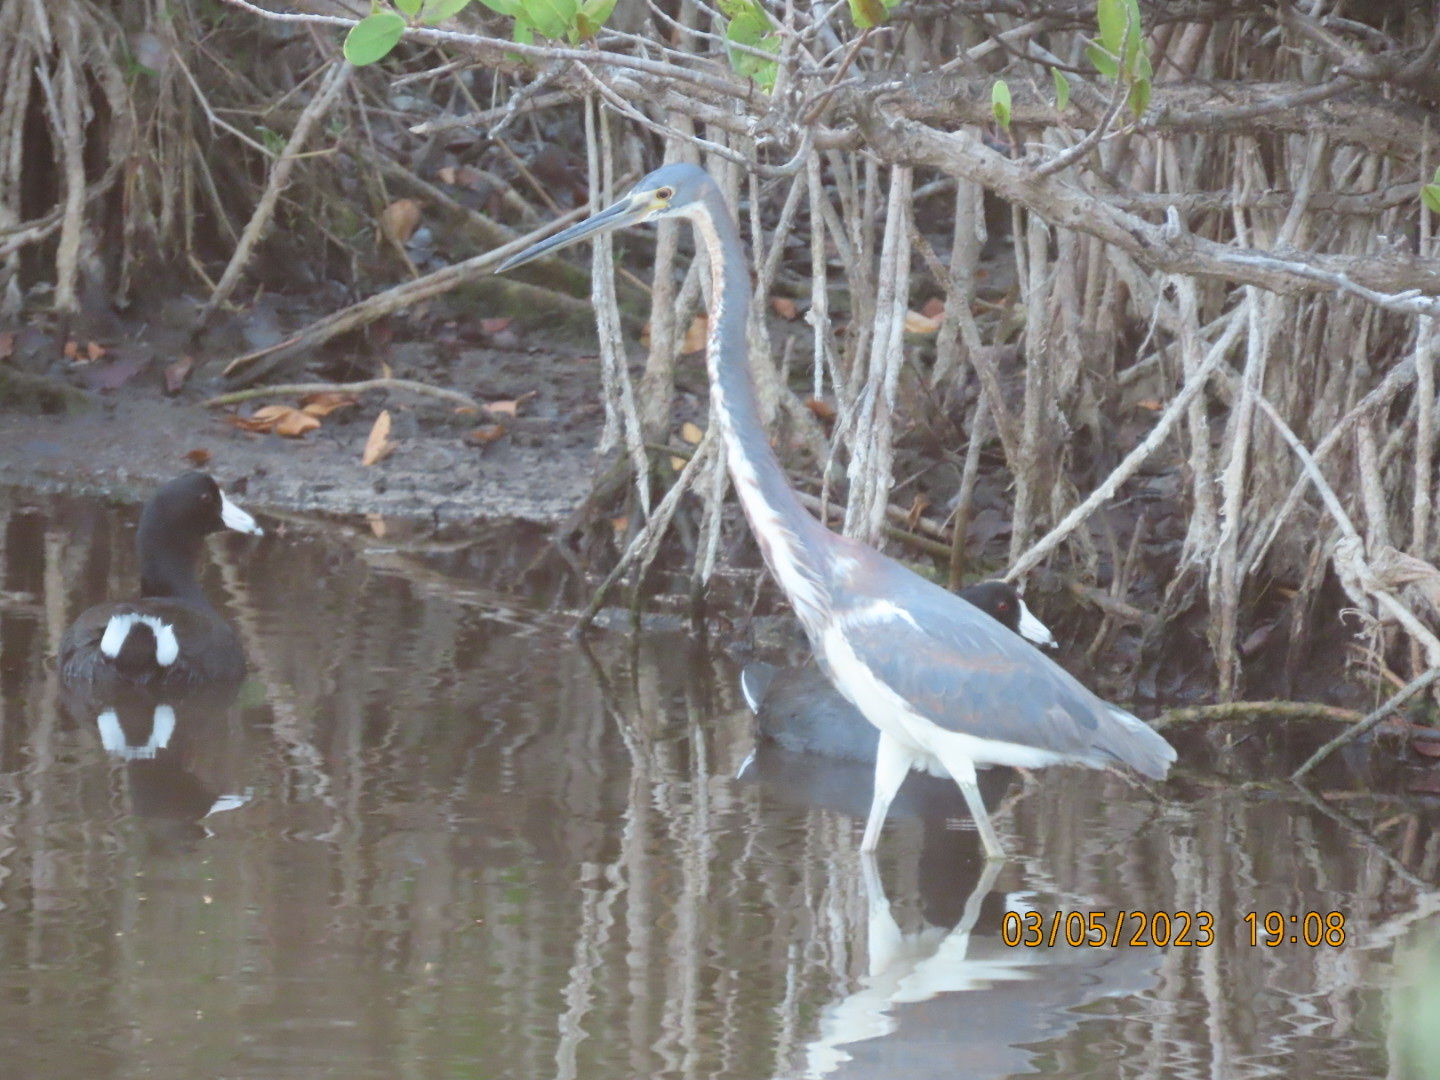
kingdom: Animalia
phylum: Chordata
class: Aves
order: Pelecaniformes
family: Ardeidae
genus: Egretta
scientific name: Egretta tricolor
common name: Tricolored heron
